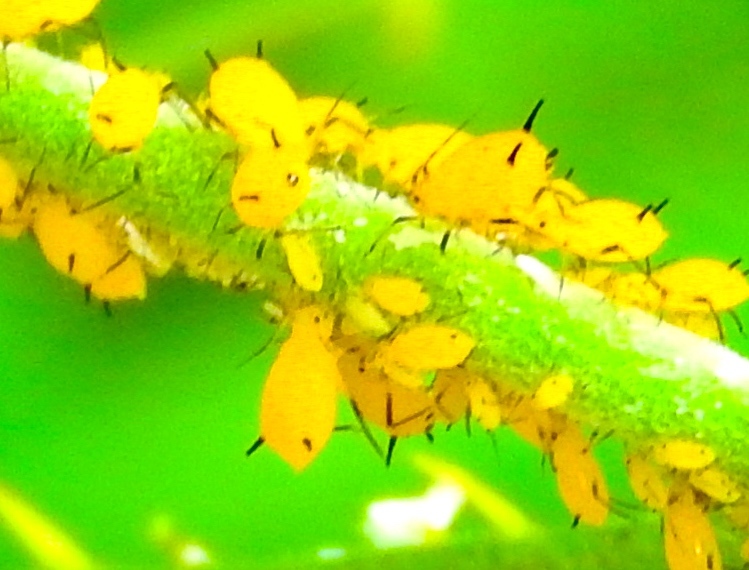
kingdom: Animalia
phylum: Arthropoda
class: Insecta
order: Hemiptera
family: Aphididae
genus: Aphis
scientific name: Aphis nerii
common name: Oleander aphid
